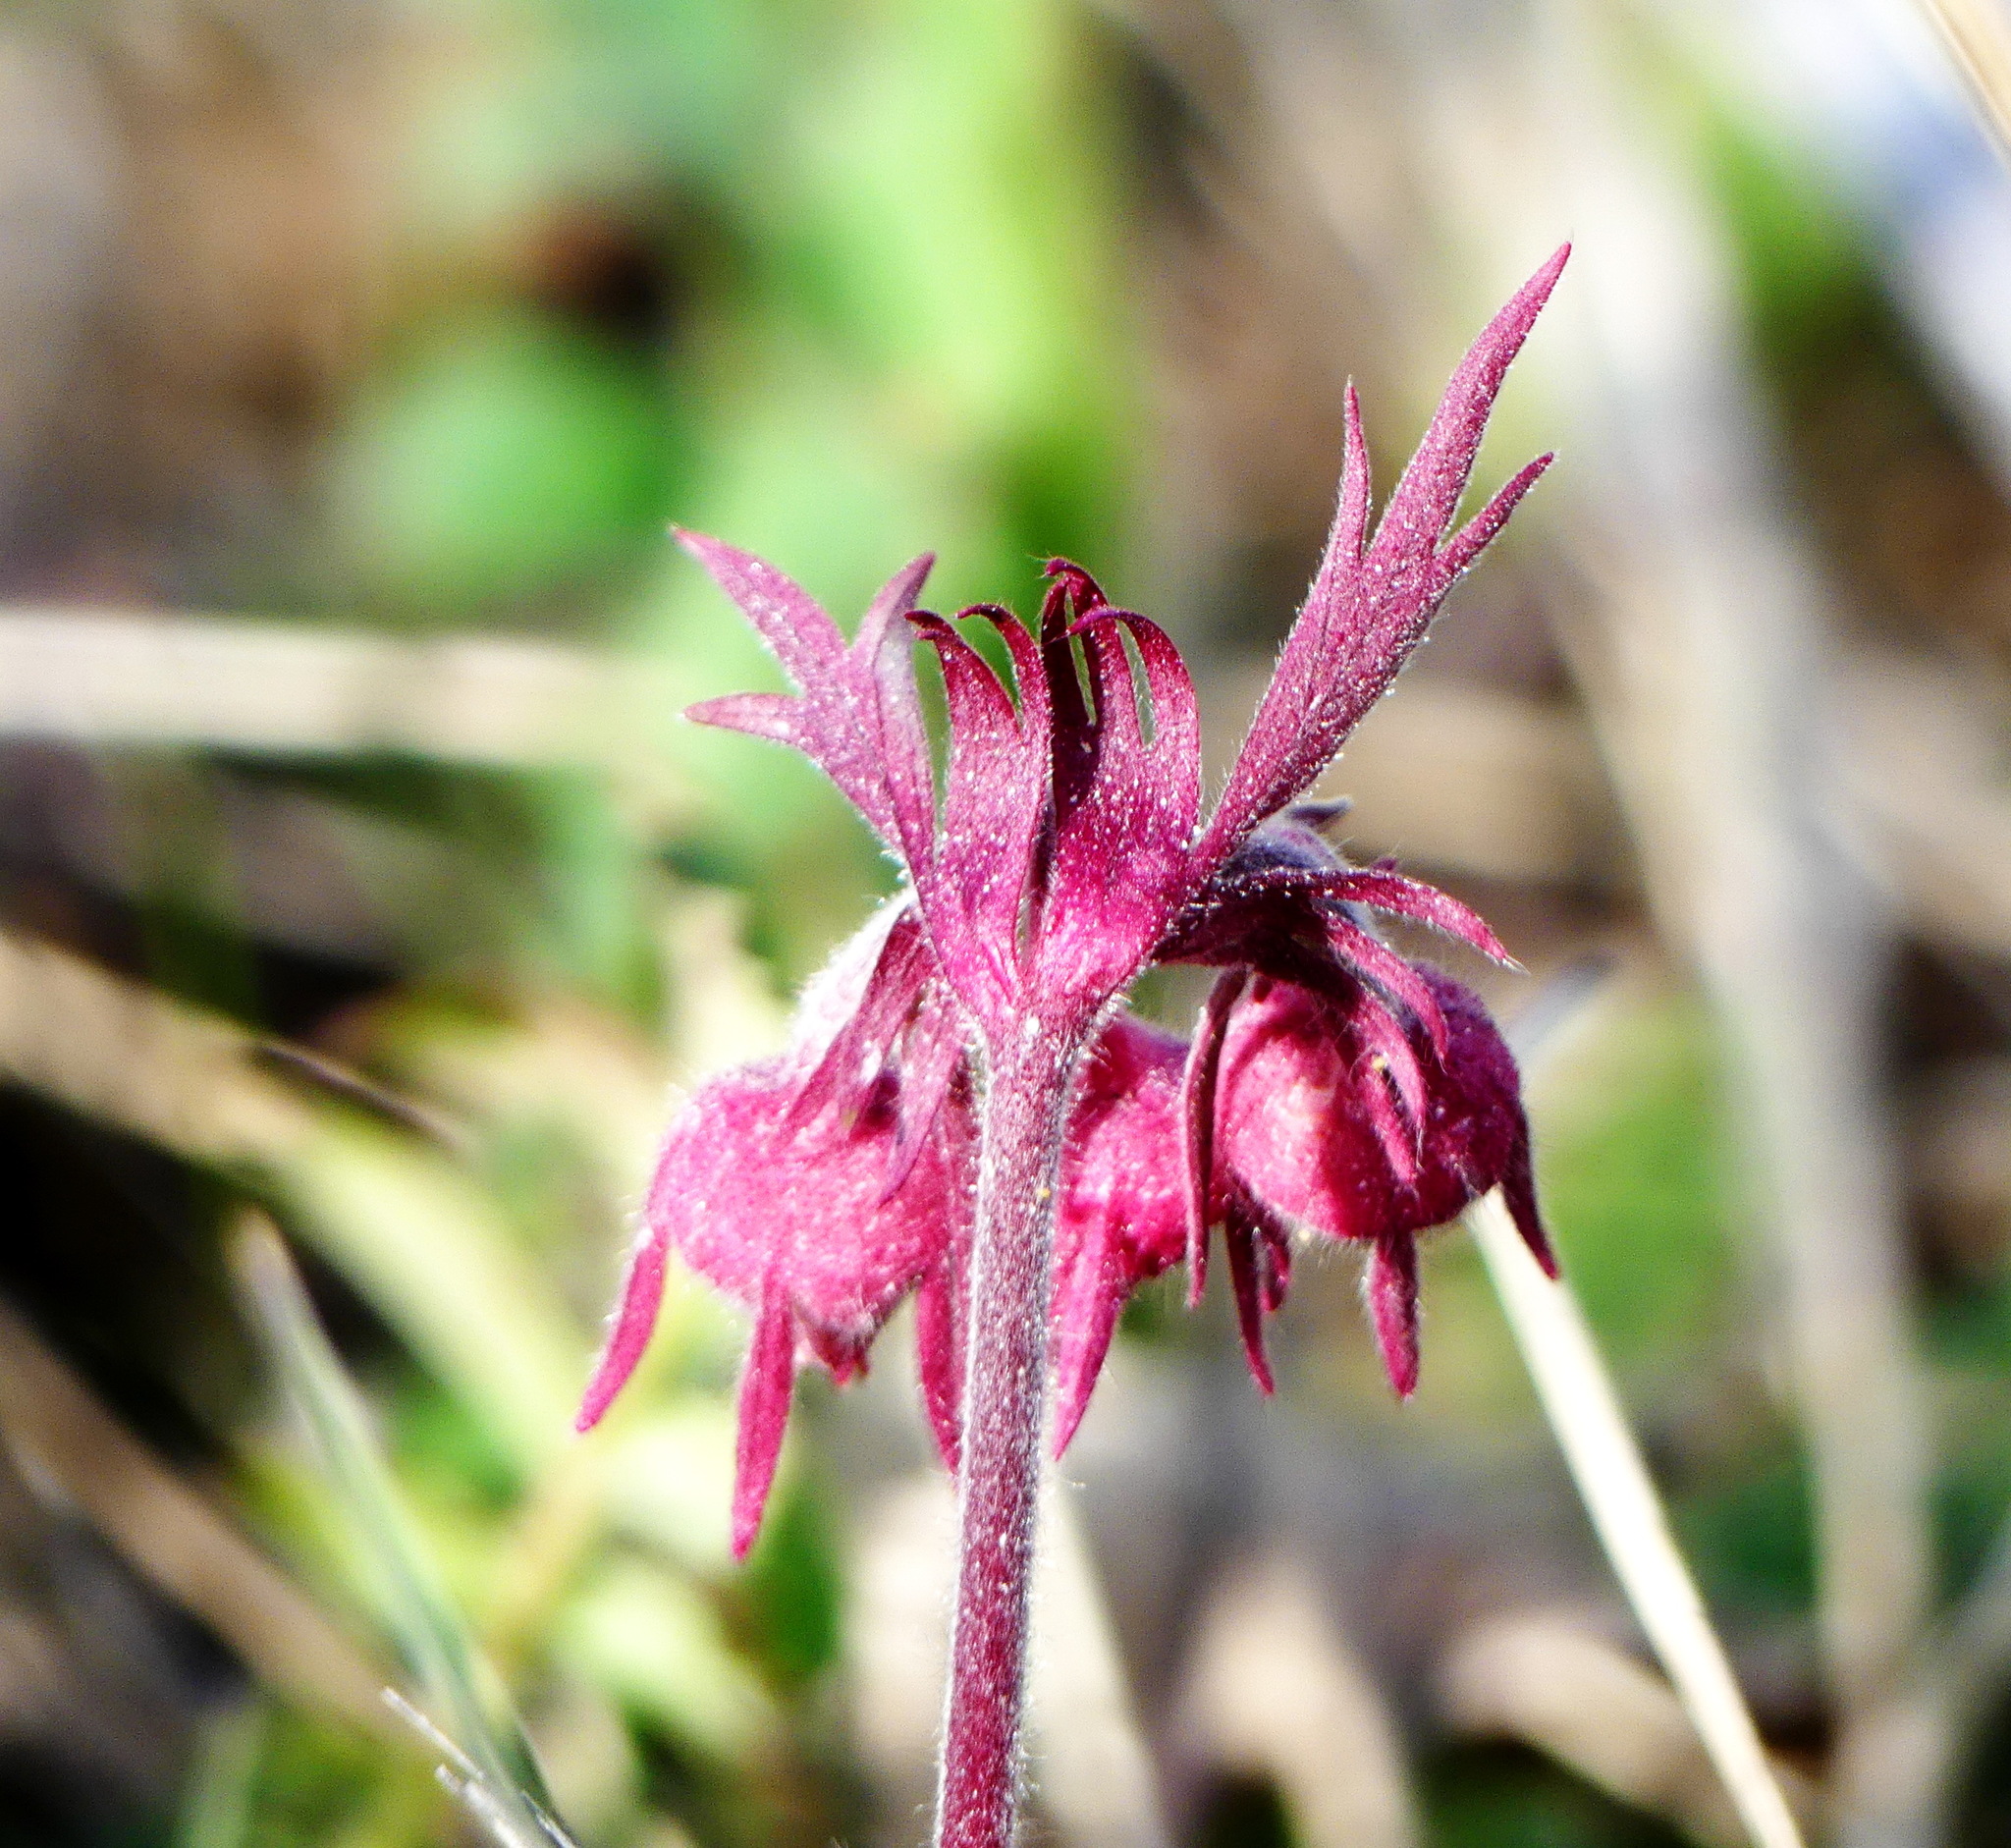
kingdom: Plantae
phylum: Tracheophyta
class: Magnoliopsida
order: Rosales
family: Rosaceae
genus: Geum
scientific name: Geum triflorum
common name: Old man's whiskers
